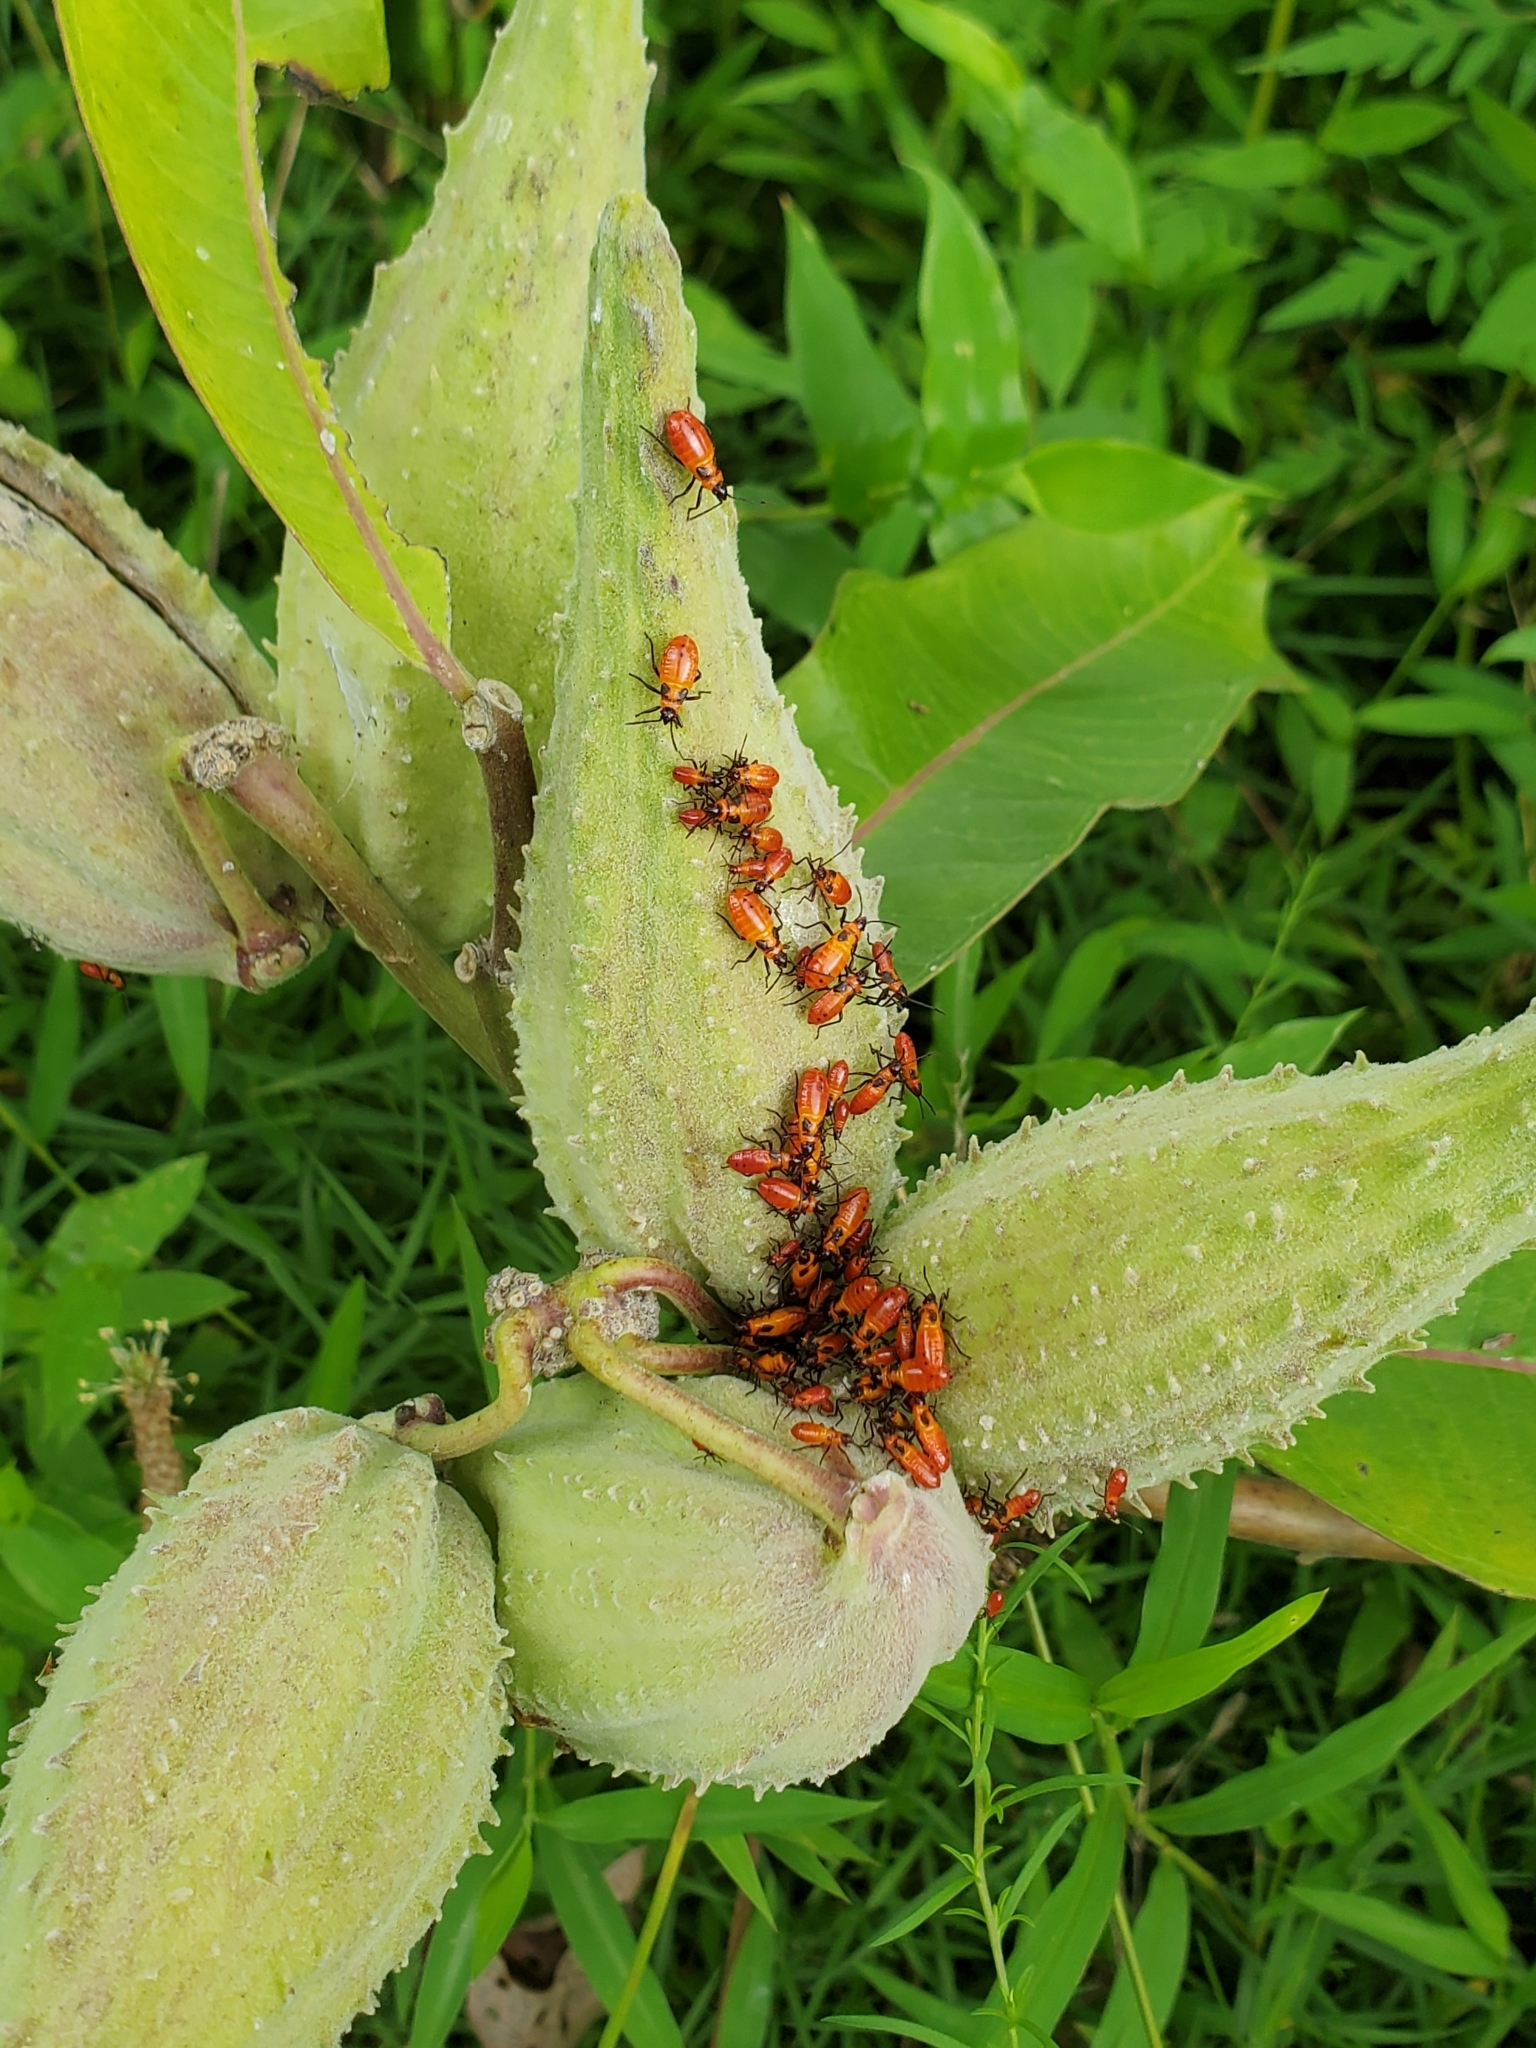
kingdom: Animalia
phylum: Arthropoda
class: Insecta
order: Hemiptera
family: Lygaeidae
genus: Oncopeltus
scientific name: Oncopeltus fasciatus
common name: Large milkweed bug
